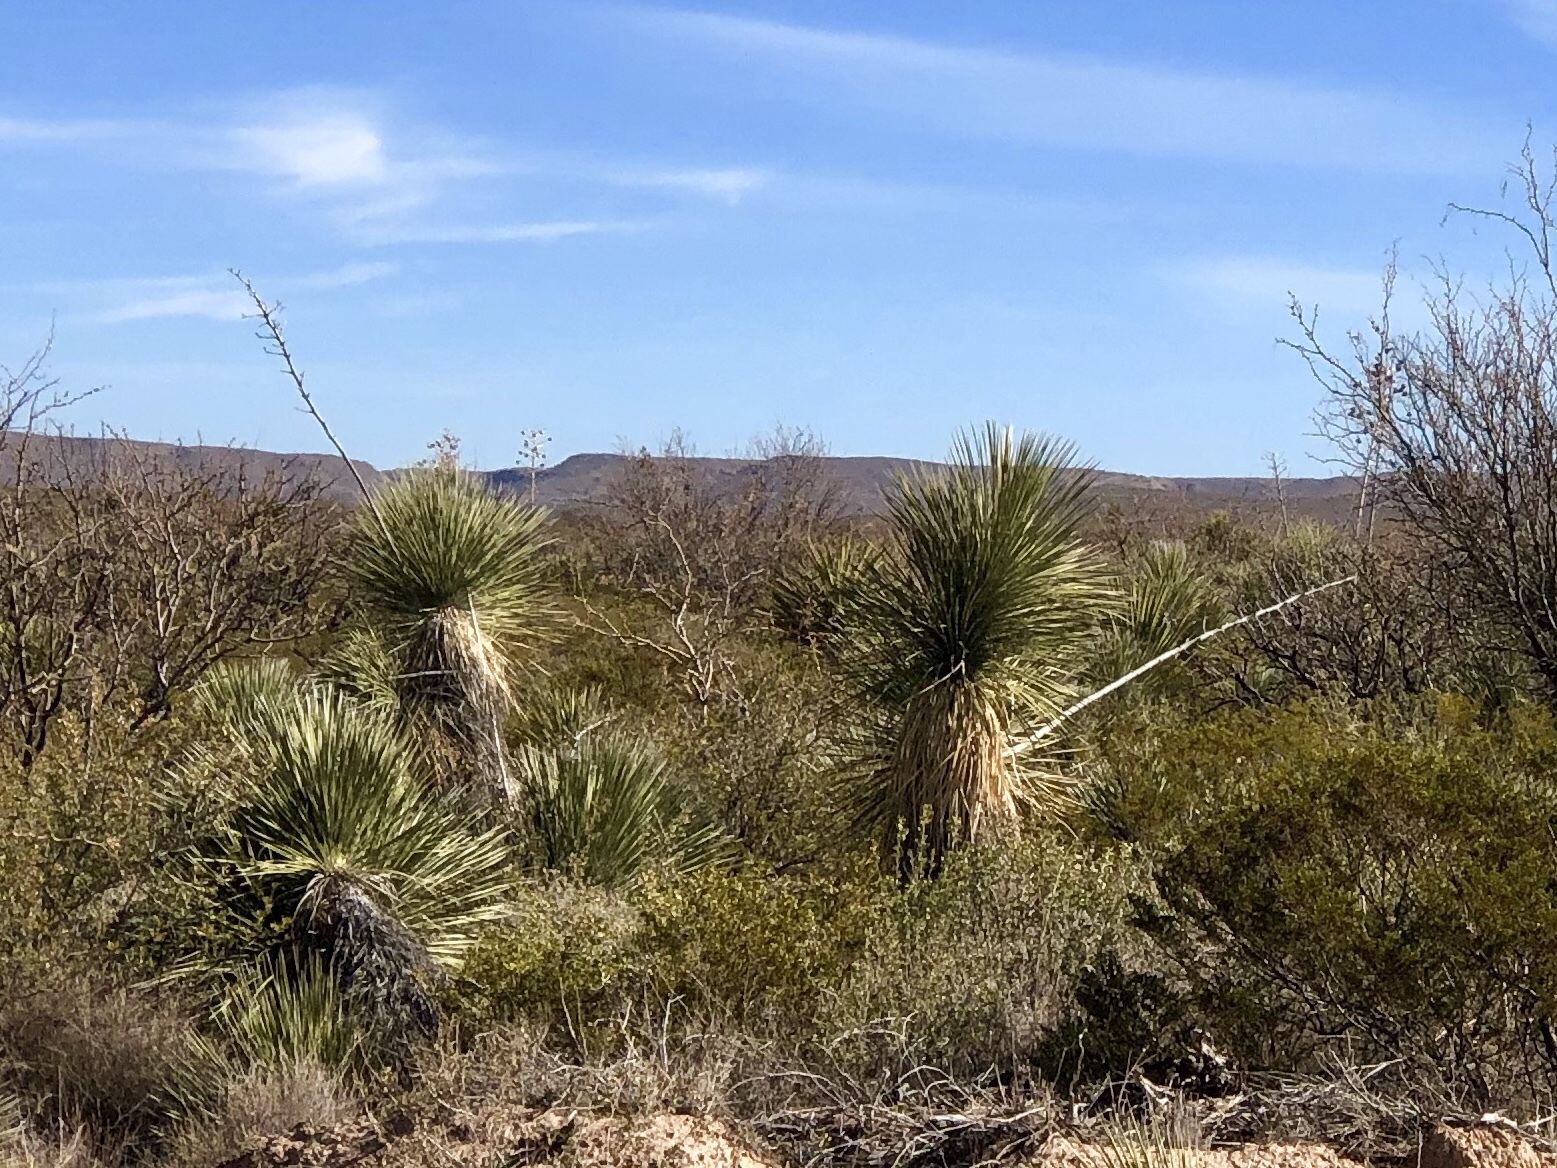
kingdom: Plantae
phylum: Tracheophyta
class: Liliopsida
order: Asparagales
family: Asparagaceae
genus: Yucca
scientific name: Yucca elata
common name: Palmella
